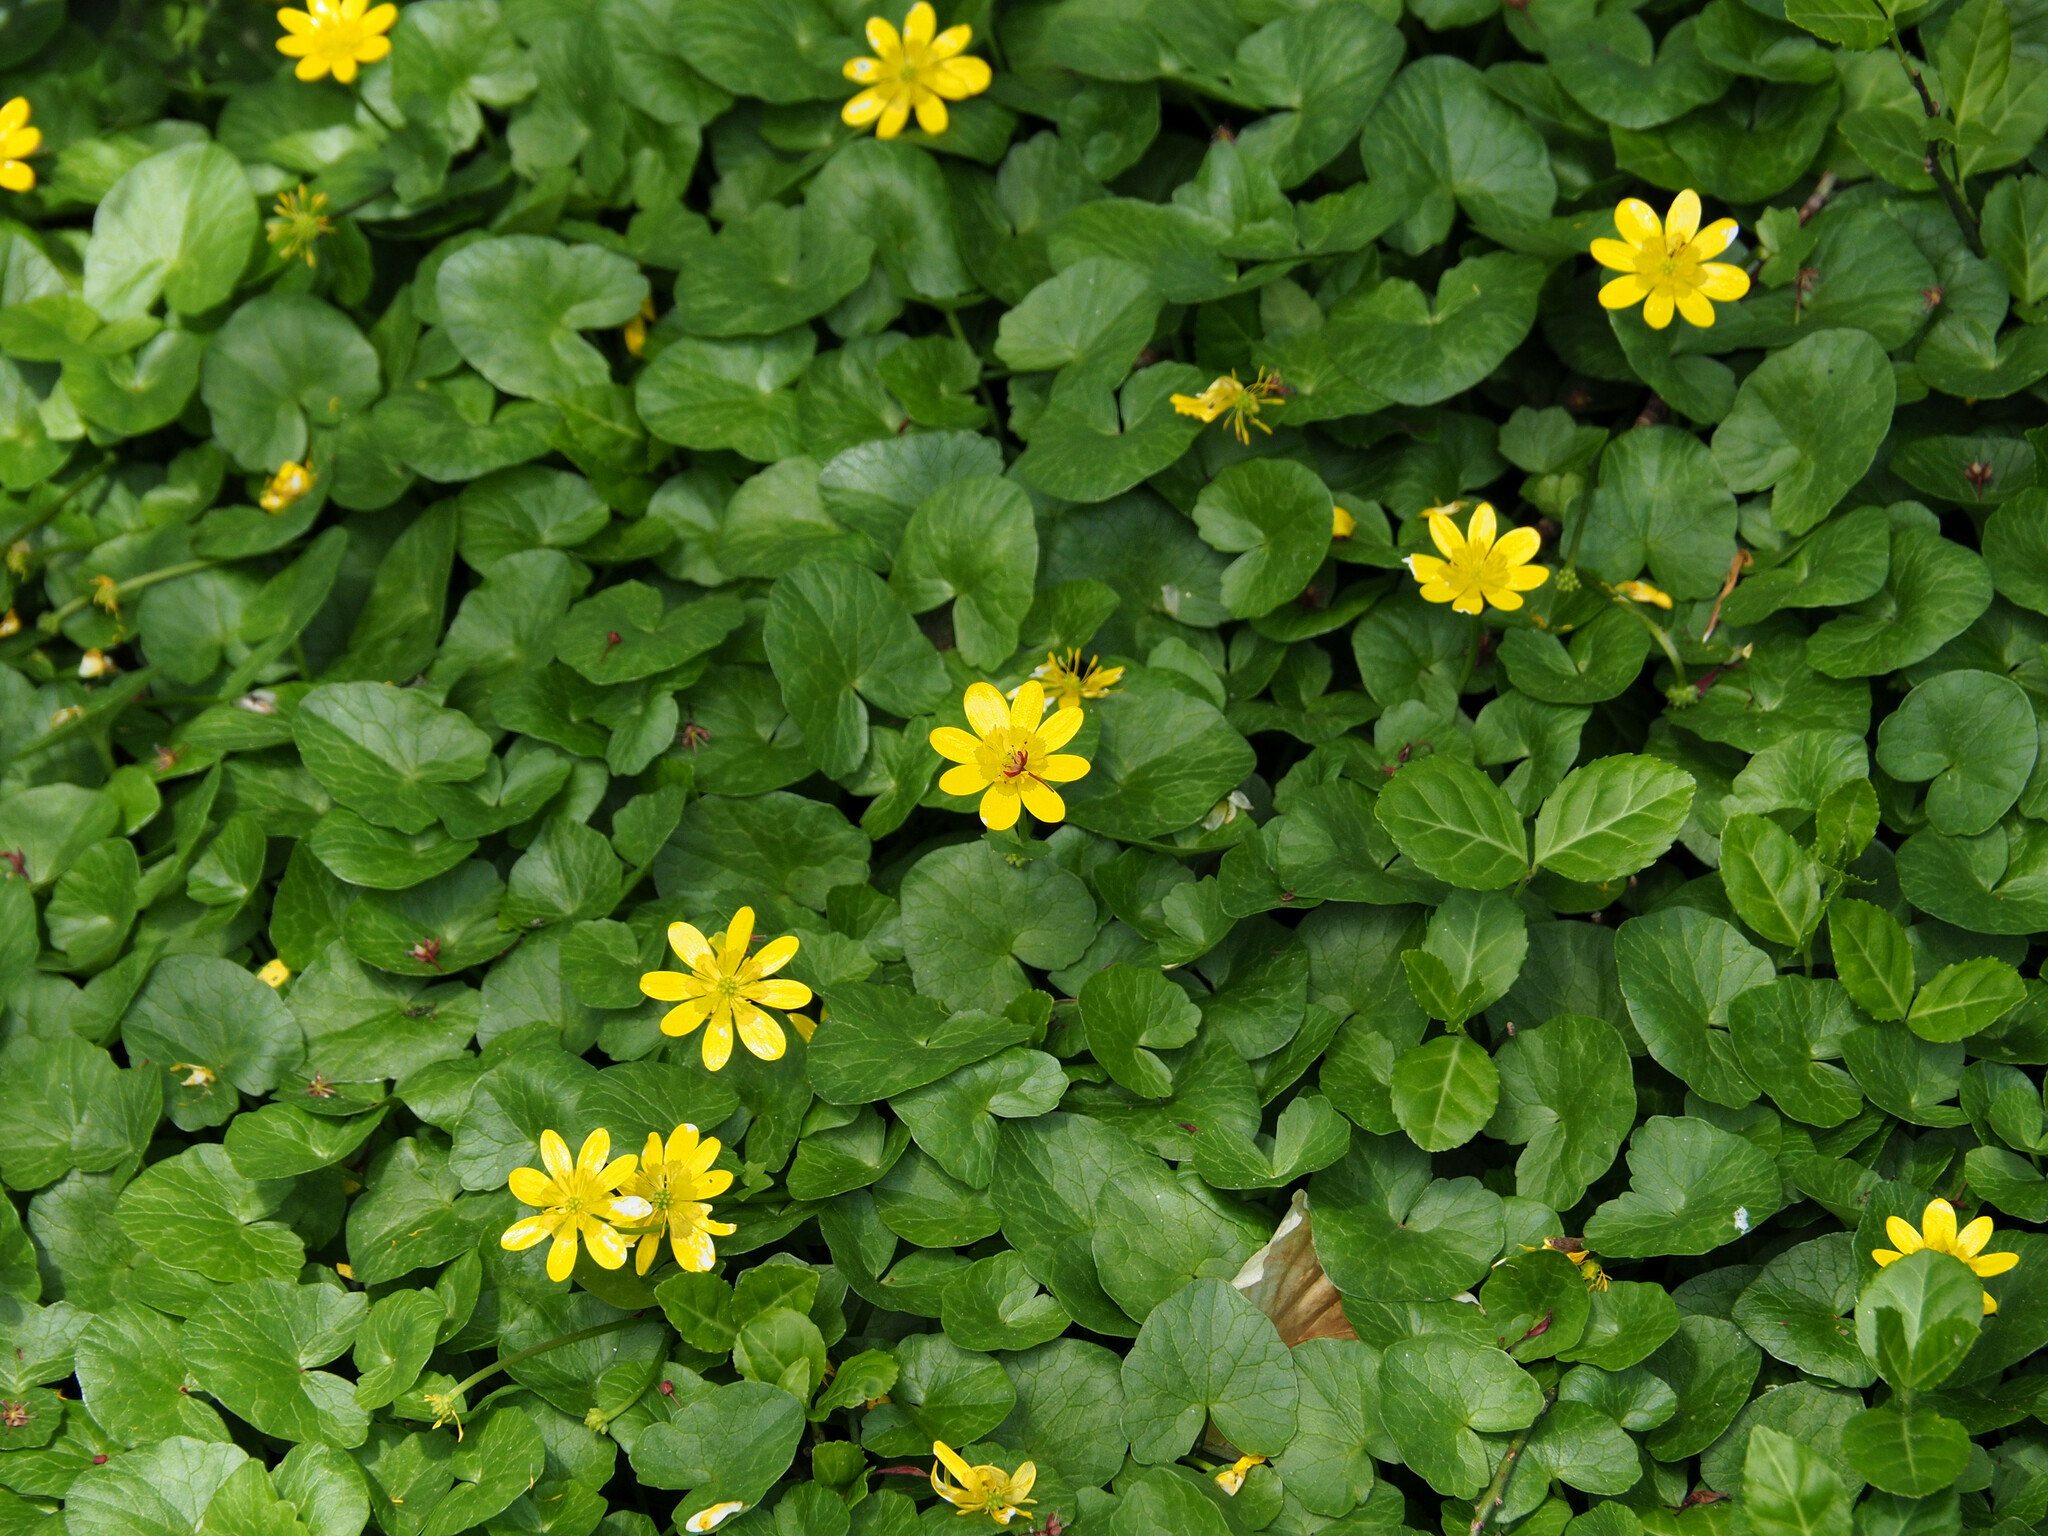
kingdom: Plantae
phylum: Tracheophyta
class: Magnoliopsida
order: Ranunculales
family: Ranunculaceae
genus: Ficaria
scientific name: Ficaria verna
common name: Lesser celandine
